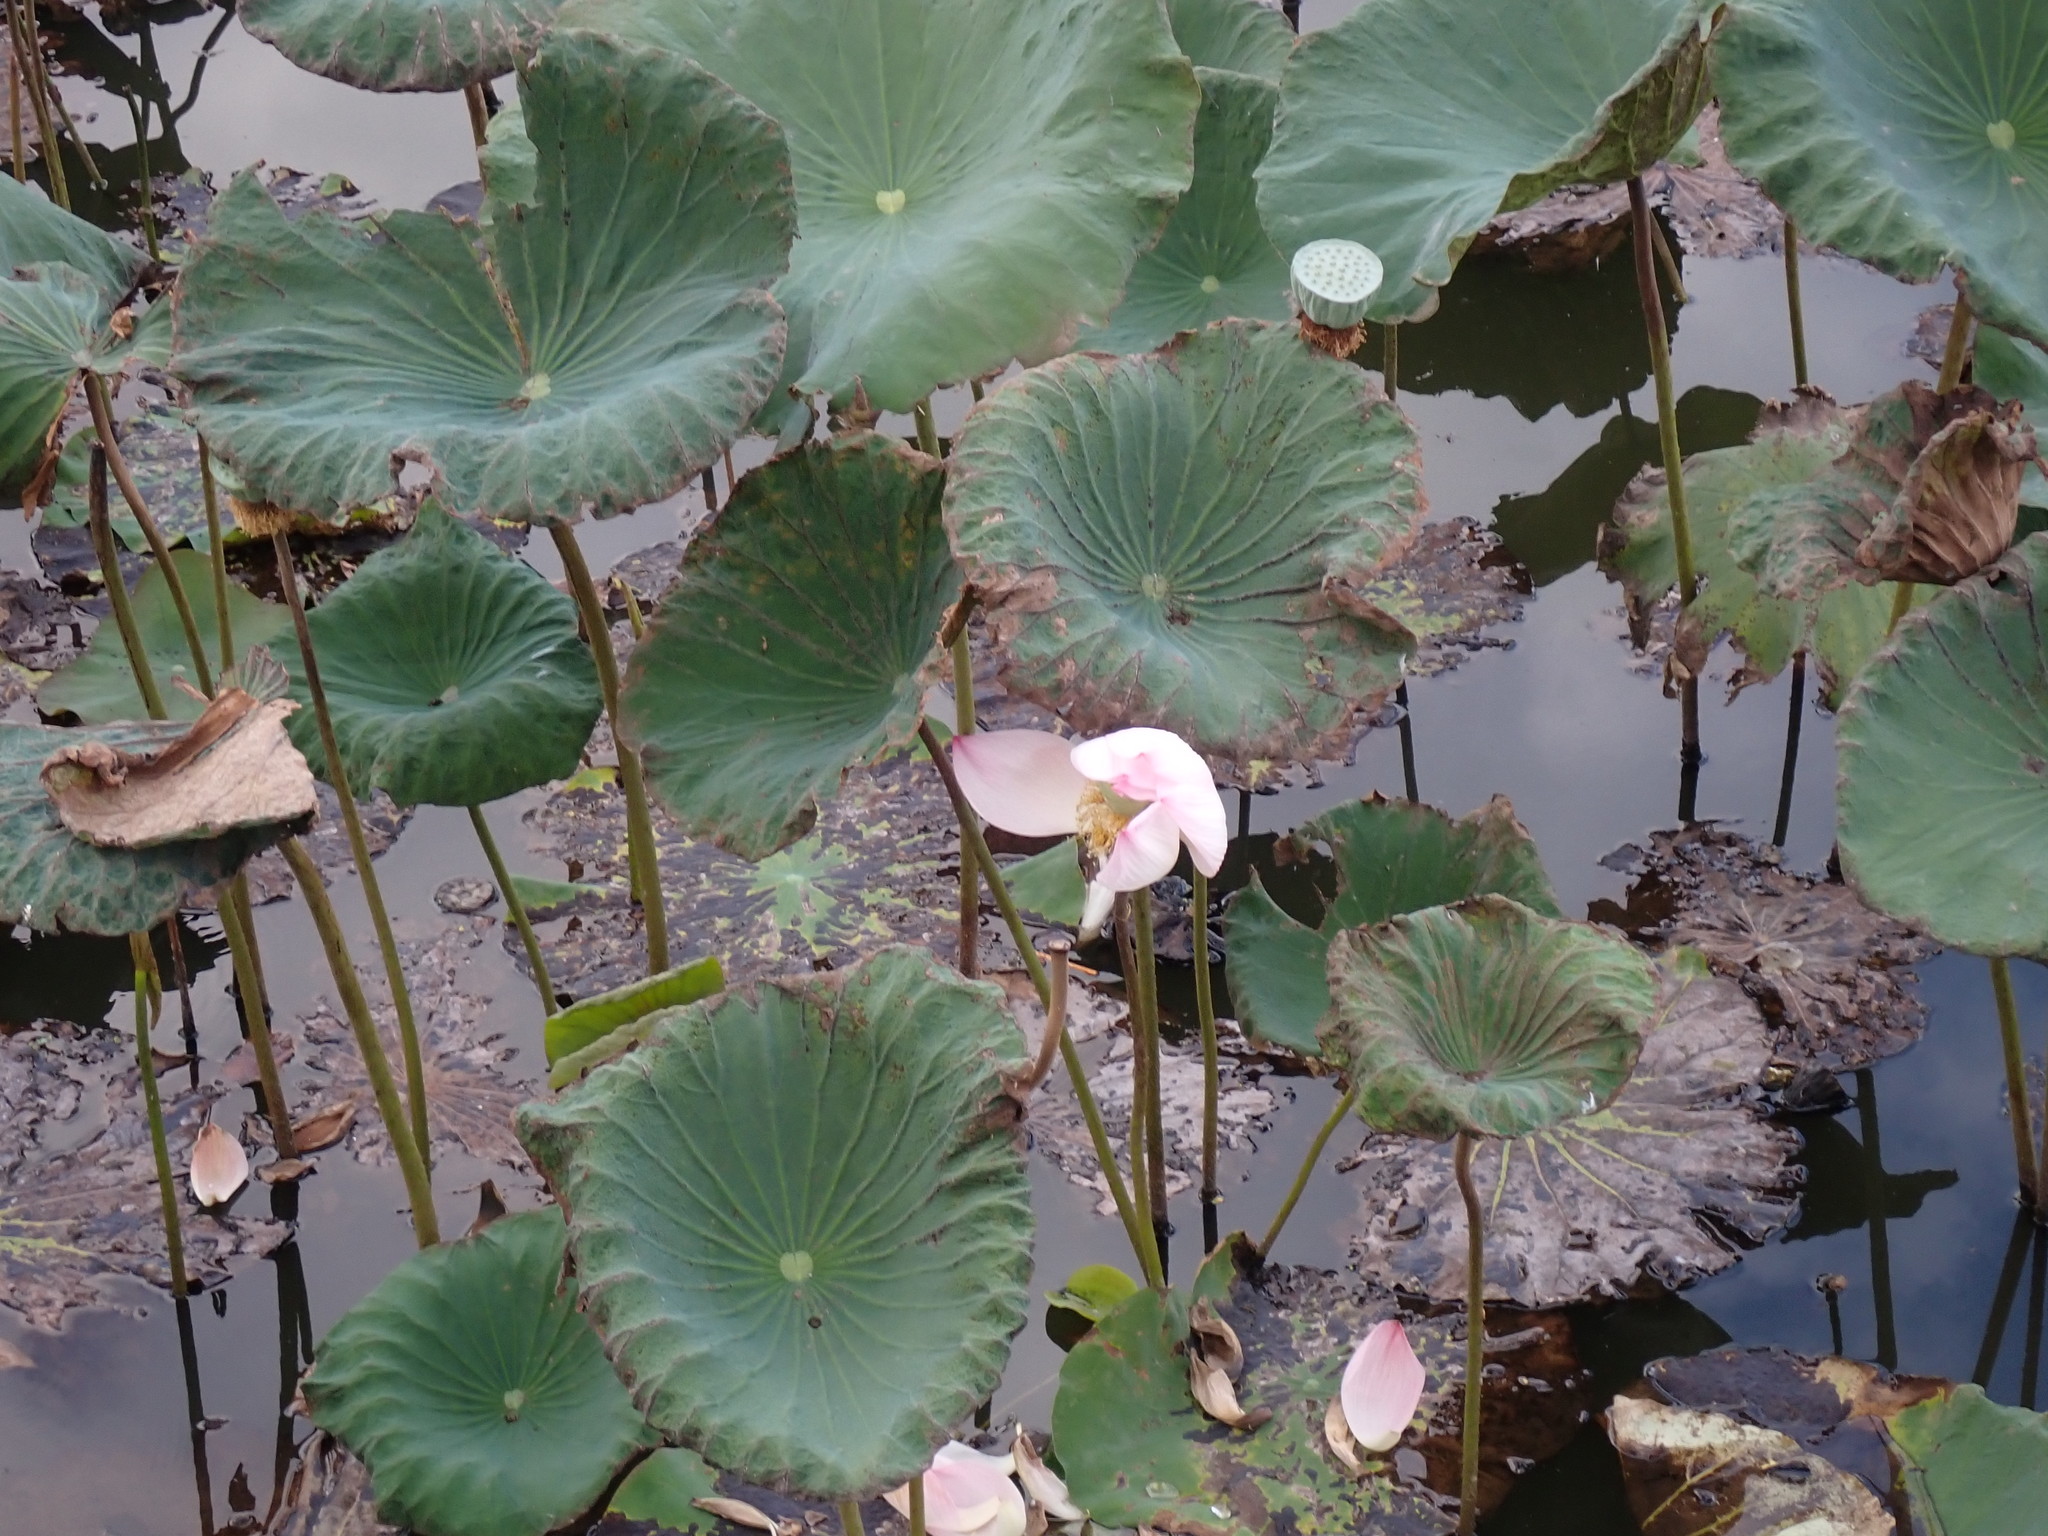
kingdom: Plantae
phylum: Tracheophyta
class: Magnoliopsida
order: Proteales
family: Nelumbonaceae
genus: Nelumbo
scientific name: Nelumbo nucifera
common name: Sacred lotus
